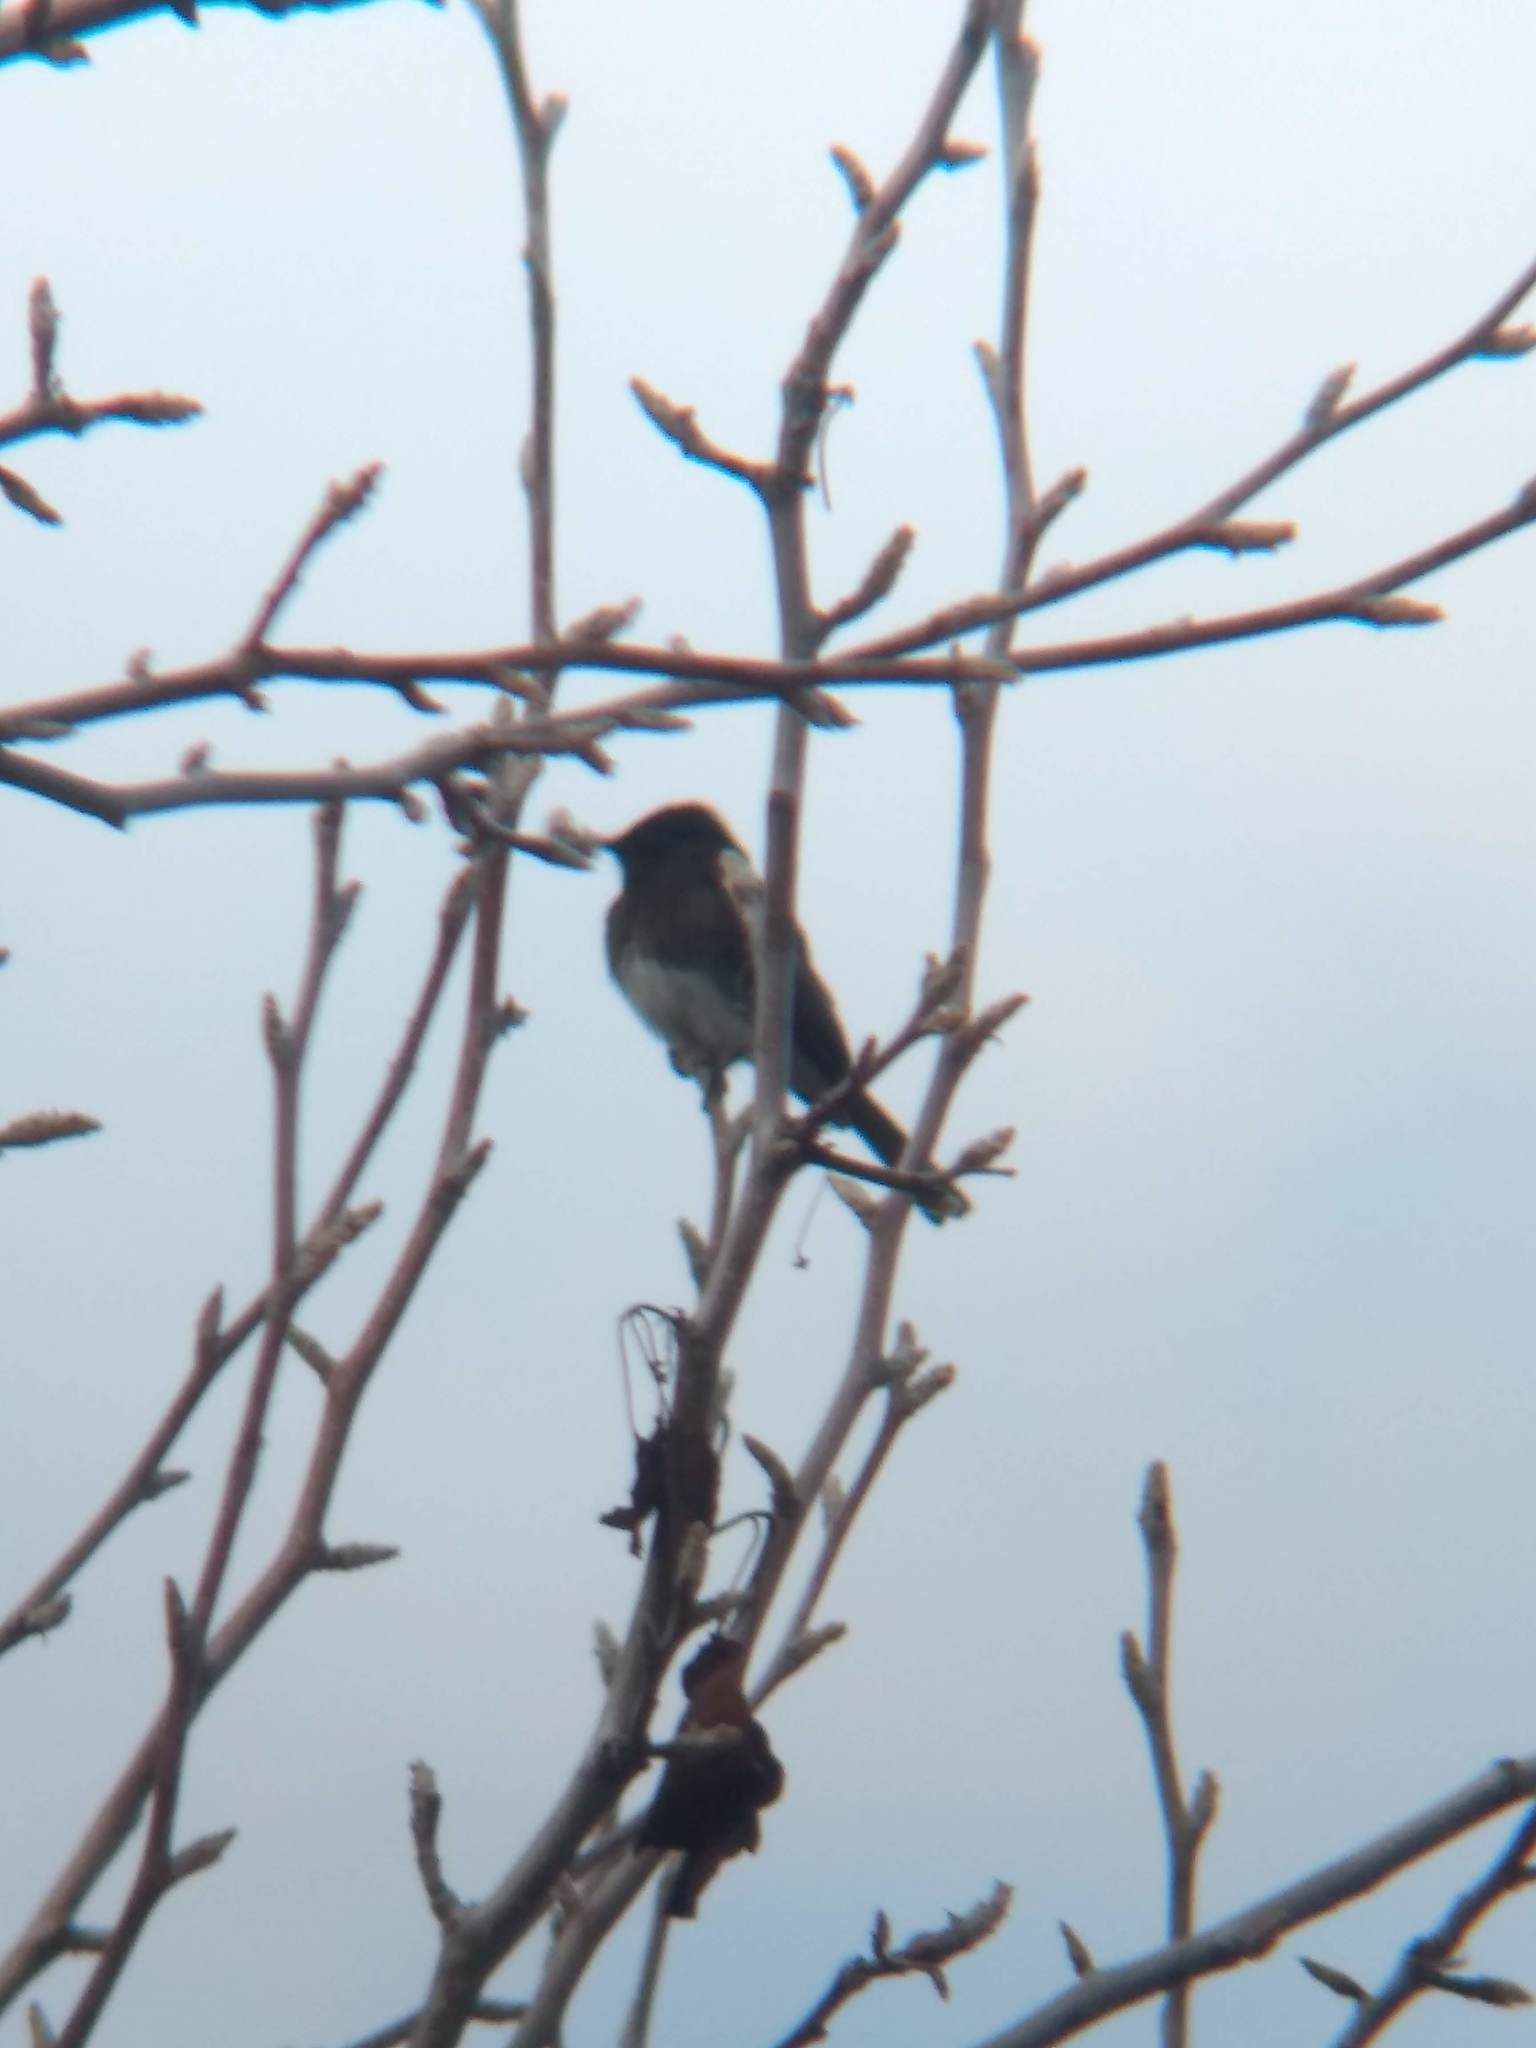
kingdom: Animalia
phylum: Chordata
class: Aves
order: Passeriformes
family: Tyrannidae
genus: Sayornis
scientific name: Sayornis nigricans
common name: Black phoebe
